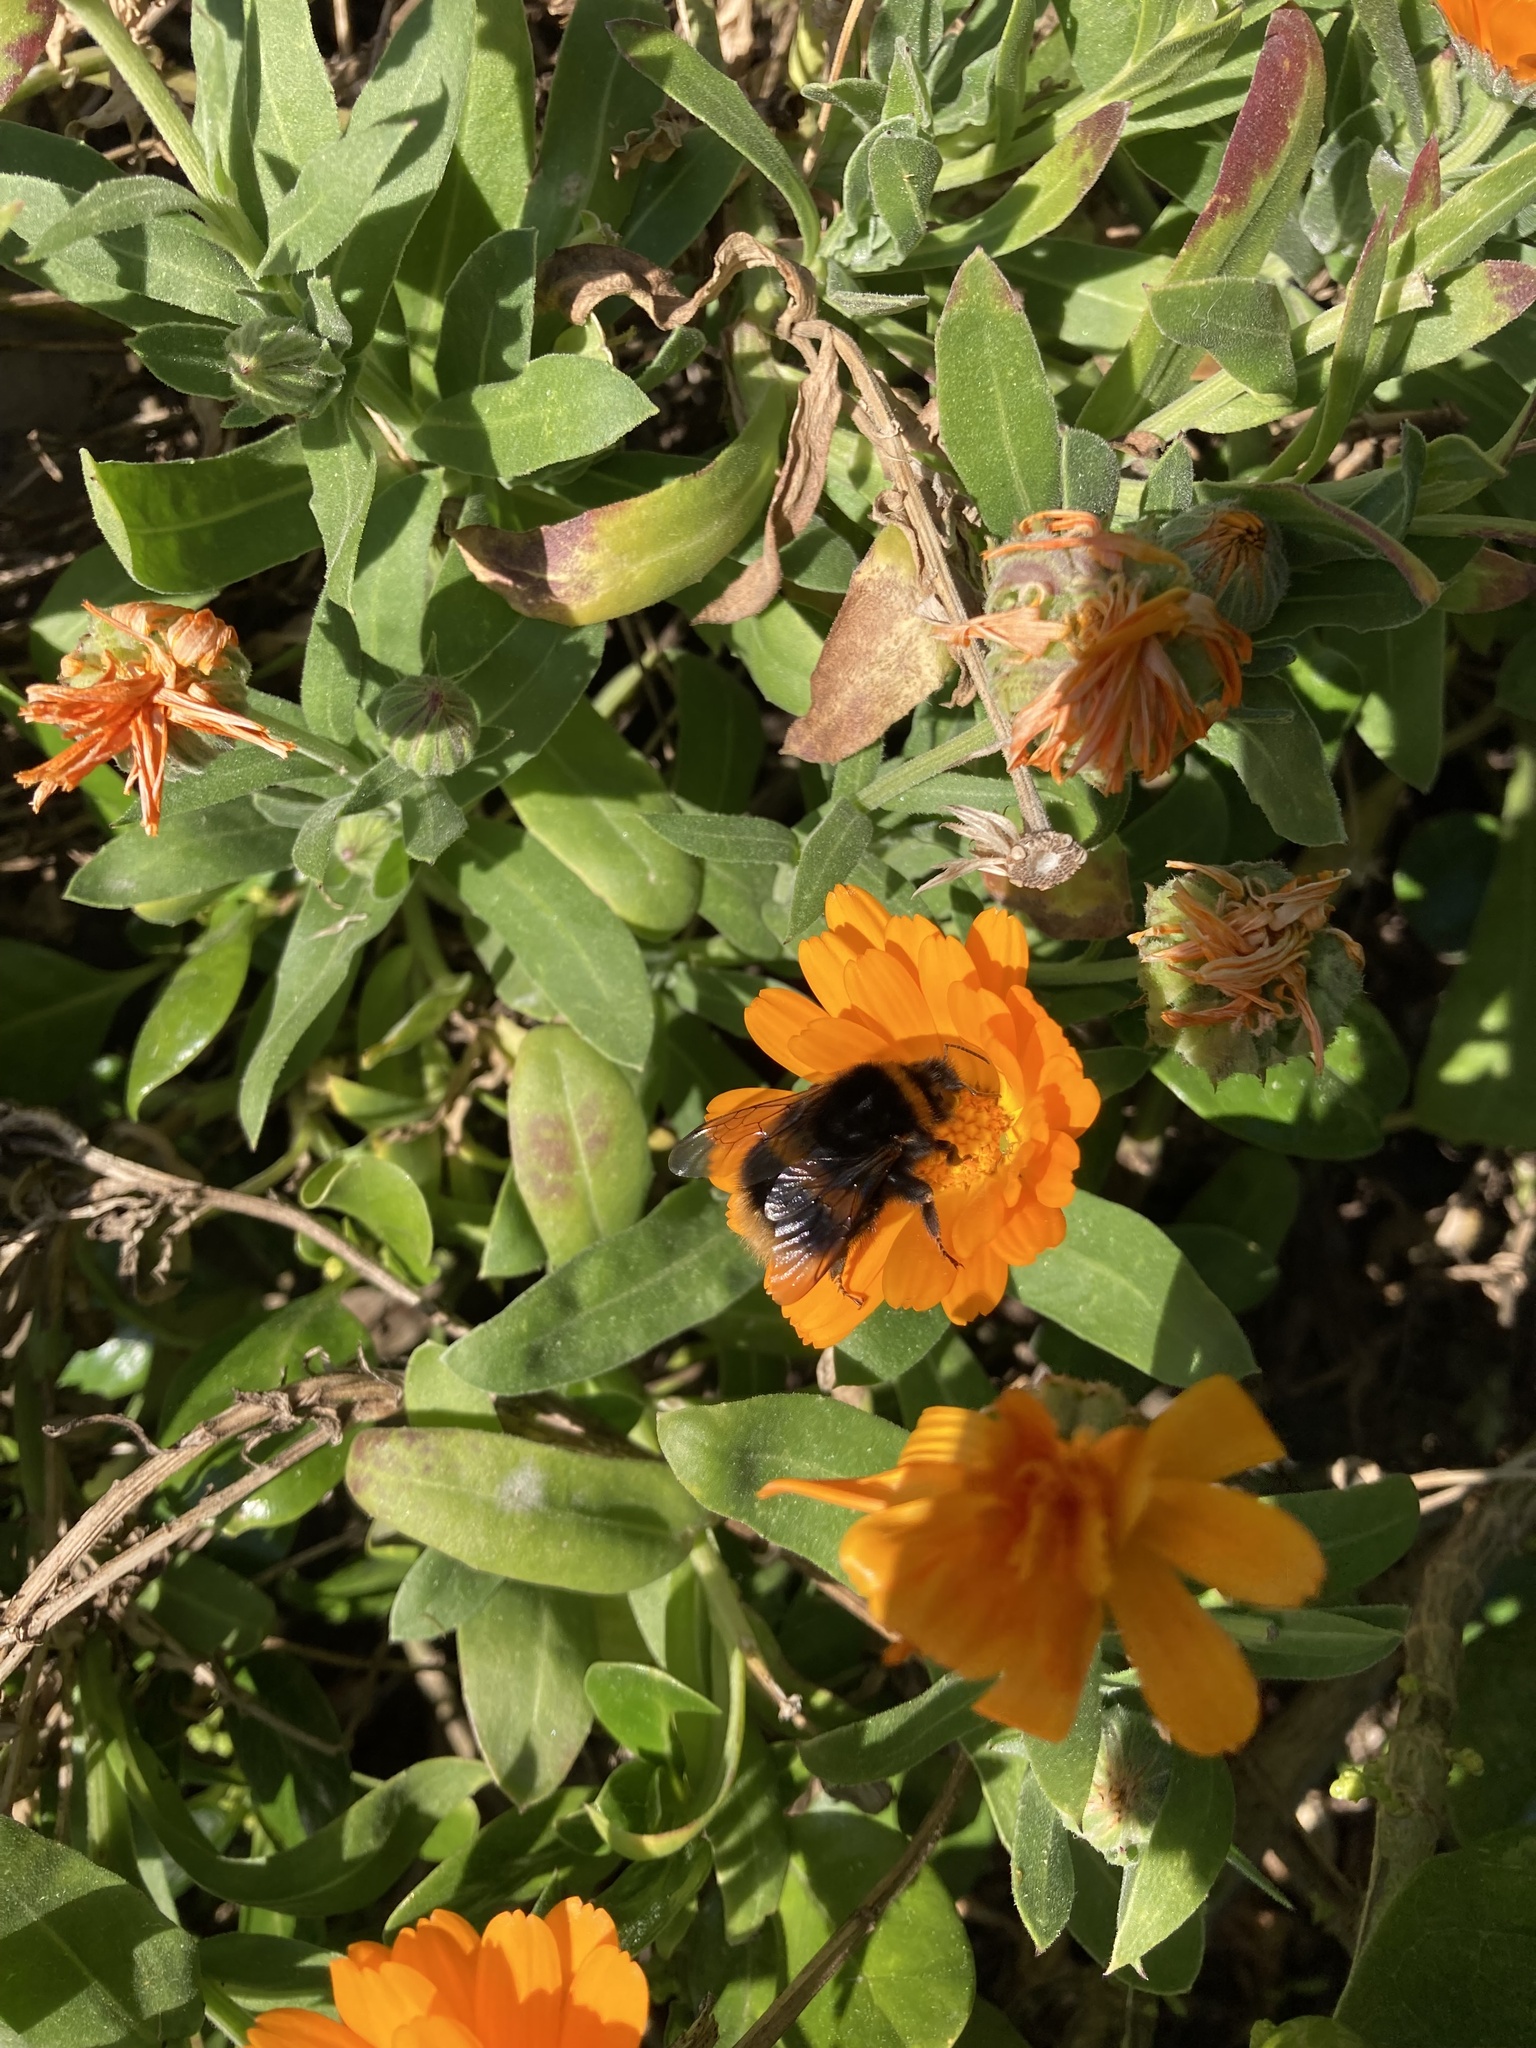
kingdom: Animalia
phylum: Arthropoda
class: Insecta
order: Hymenoptera
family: Apidae
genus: Bombus
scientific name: Bombus terrestris
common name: Buff-tailed bumblebee
